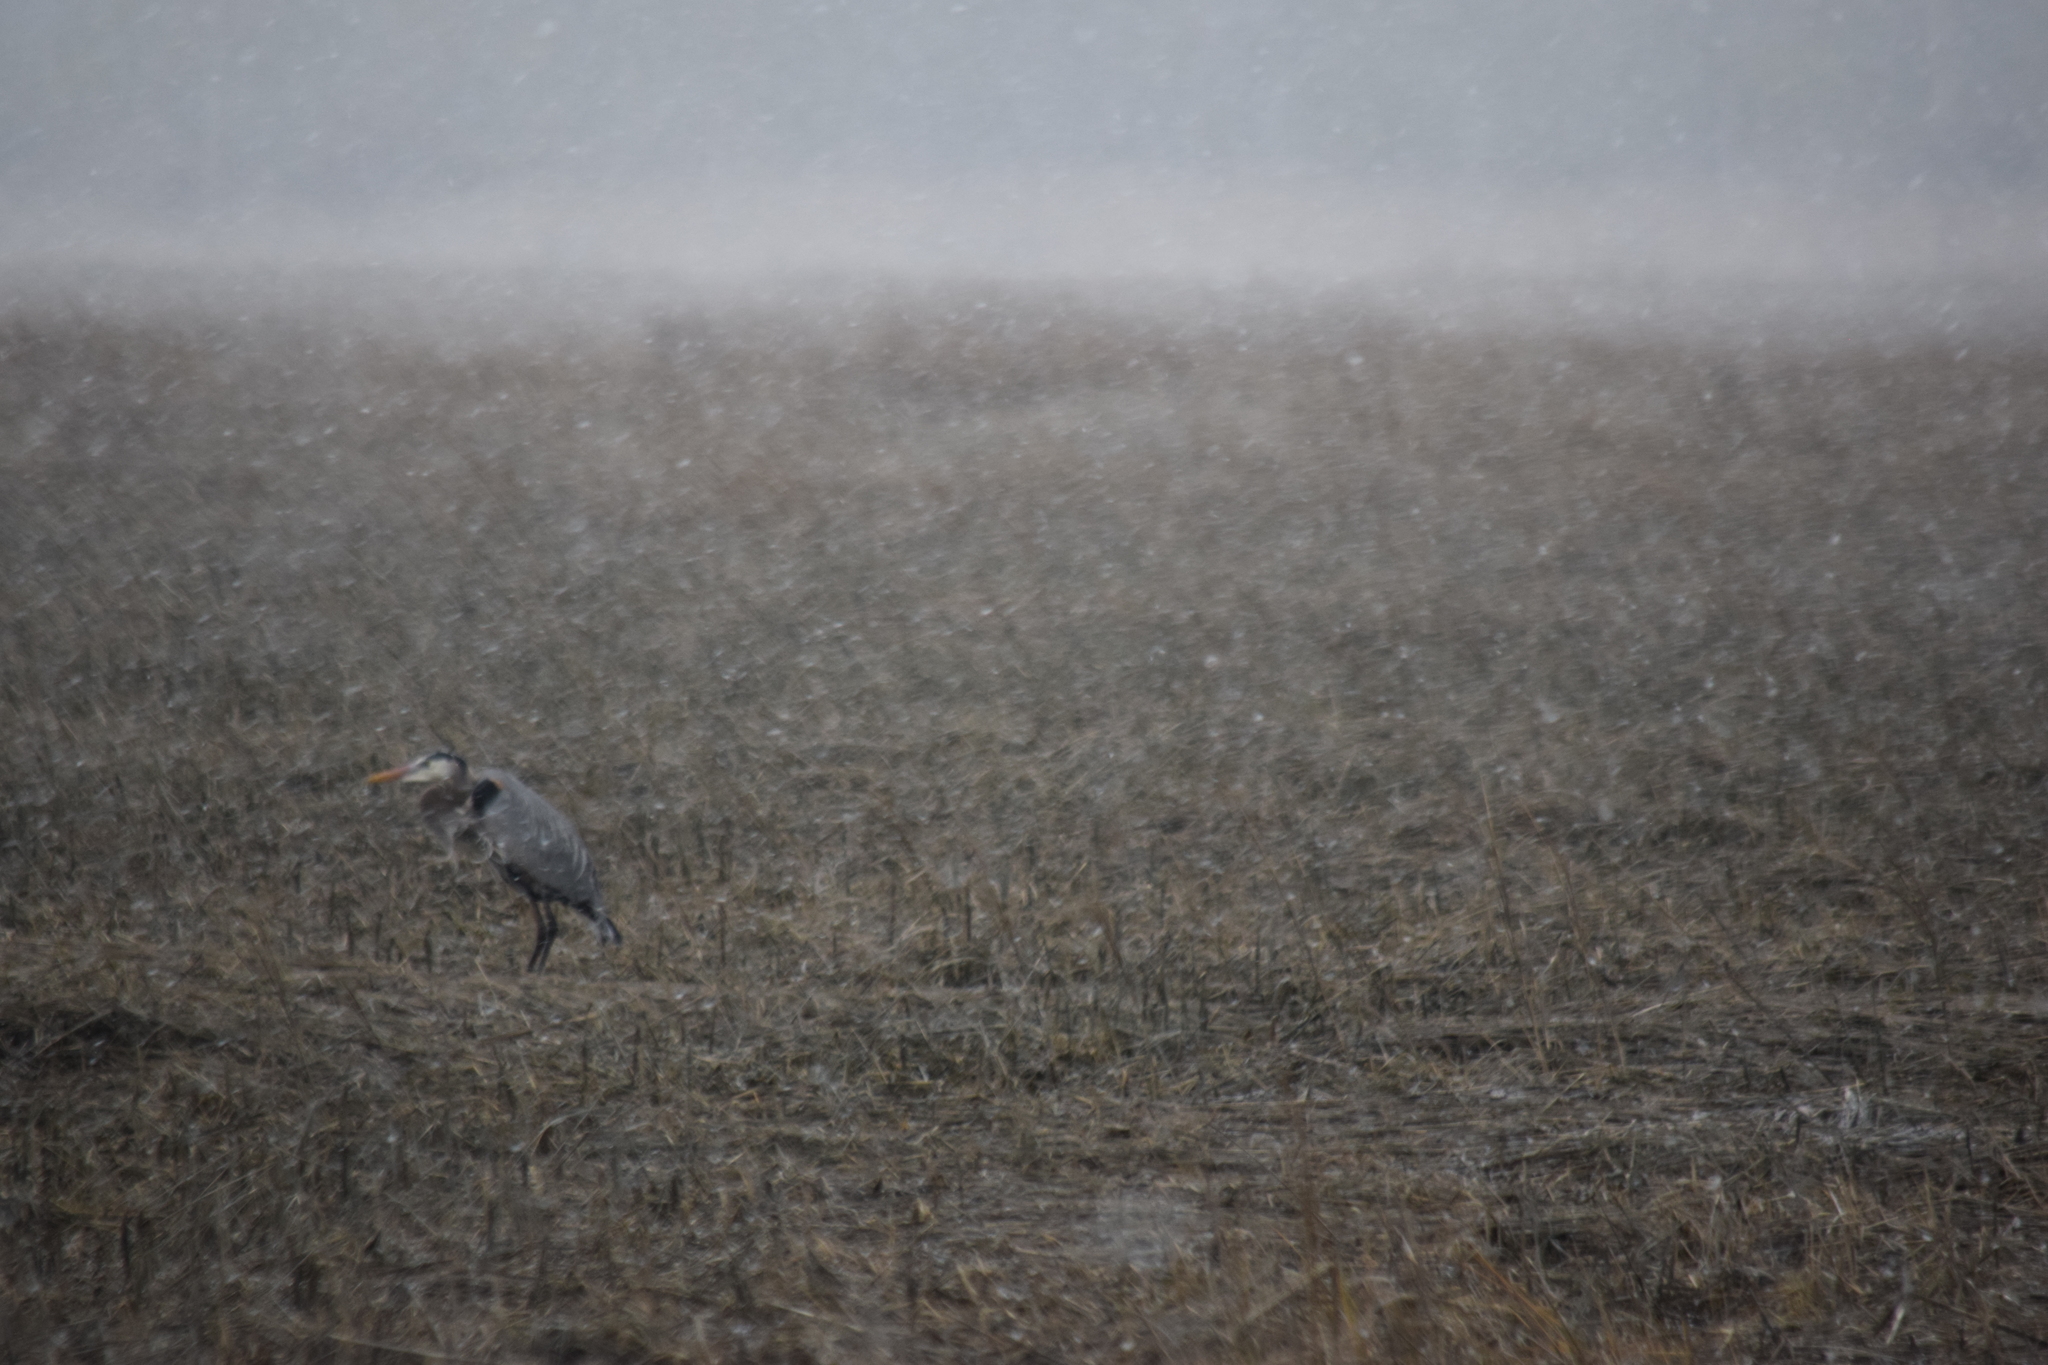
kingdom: Animalia
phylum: Chordata
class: Aves
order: Pelecaniformes
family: Ardeidae
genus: Ardea
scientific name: Ardea herodias
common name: Great blue heron
